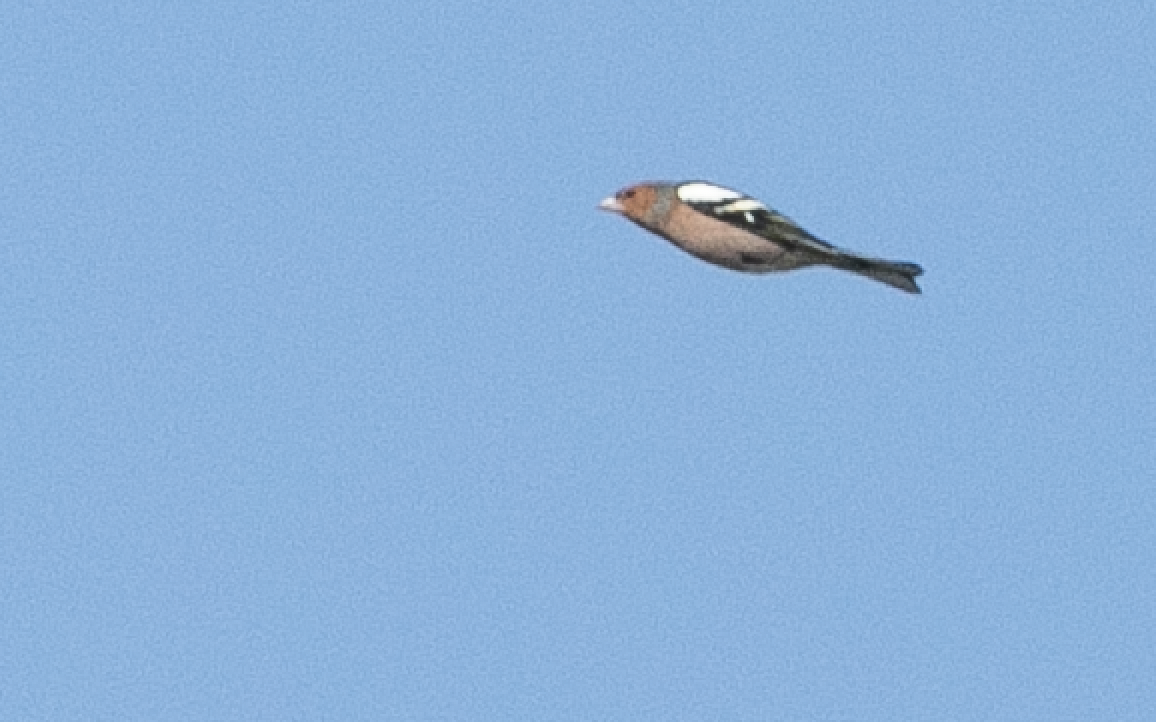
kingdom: Animalia
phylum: Chordata
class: Aves
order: Passeriformes
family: Fringillidae
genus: Fringilla
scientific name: Fringilla coelebs
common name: Common chaffinch
